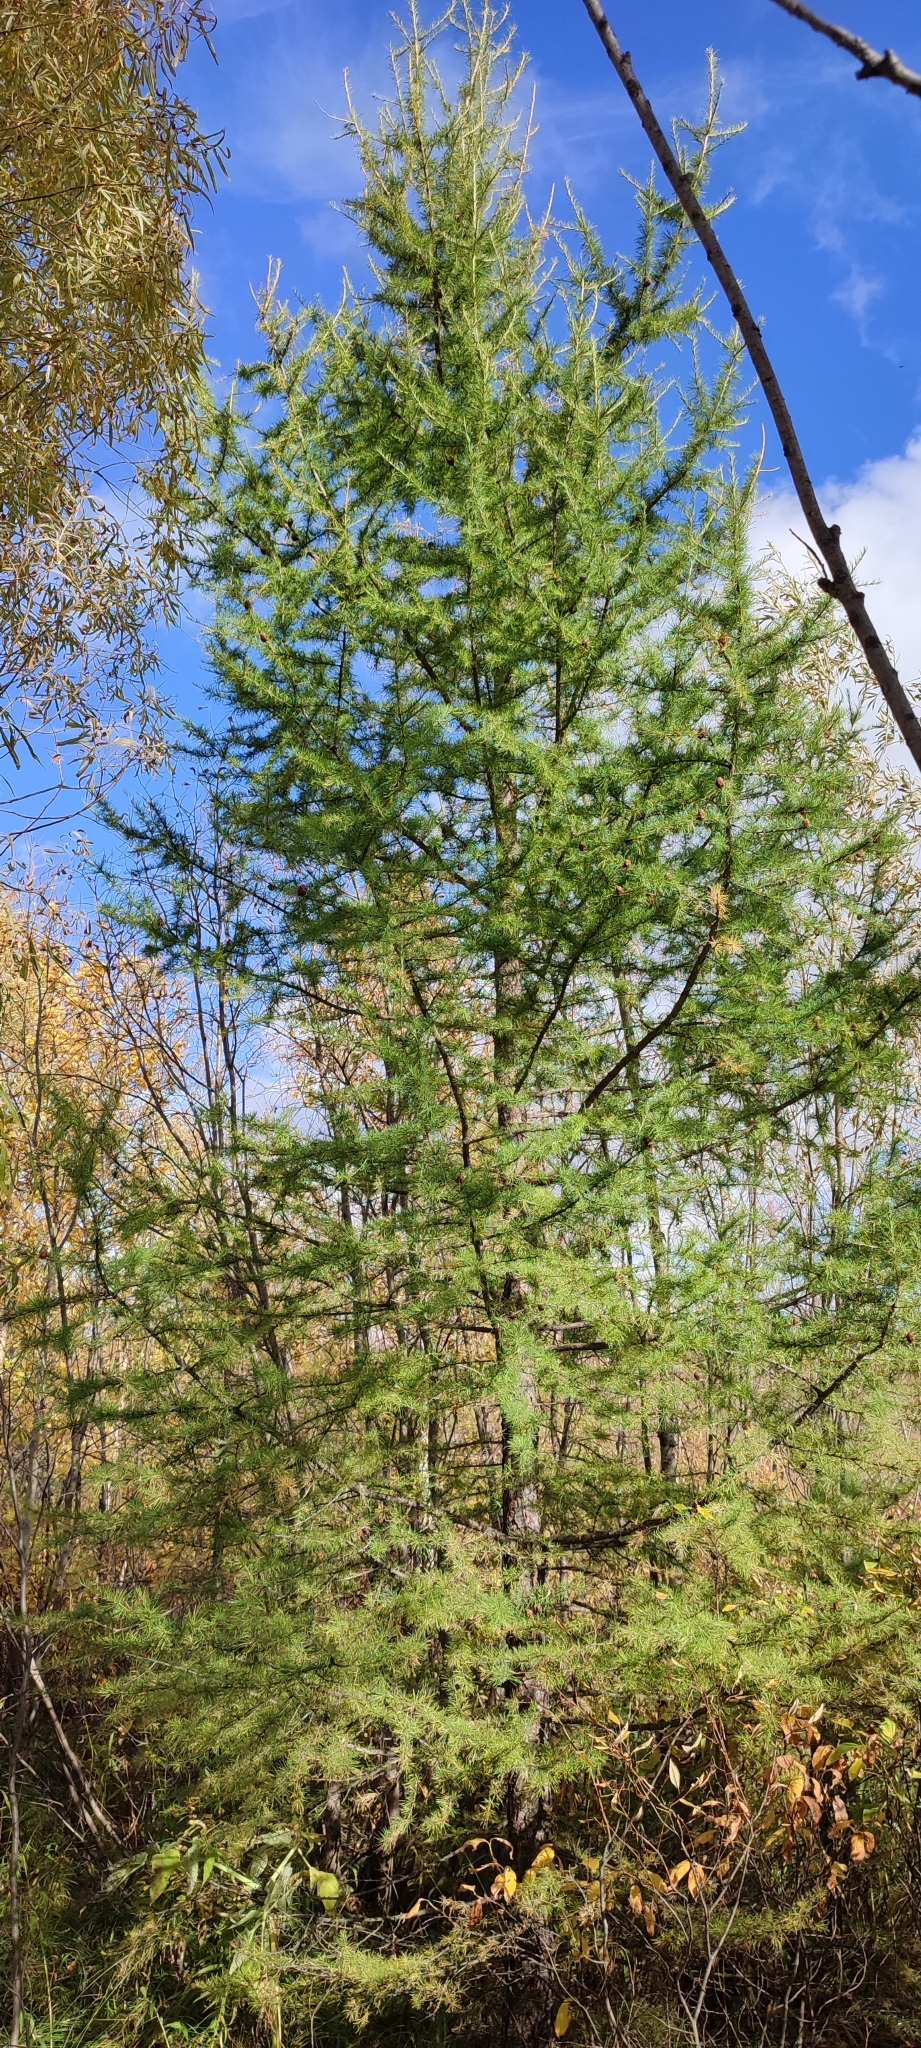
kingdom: Plantae
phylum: Tracheophyta
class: Pinopsida
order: Pinales
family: Pinaceae
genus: Larix
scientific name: Larix sibirica
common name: Siberian larch
